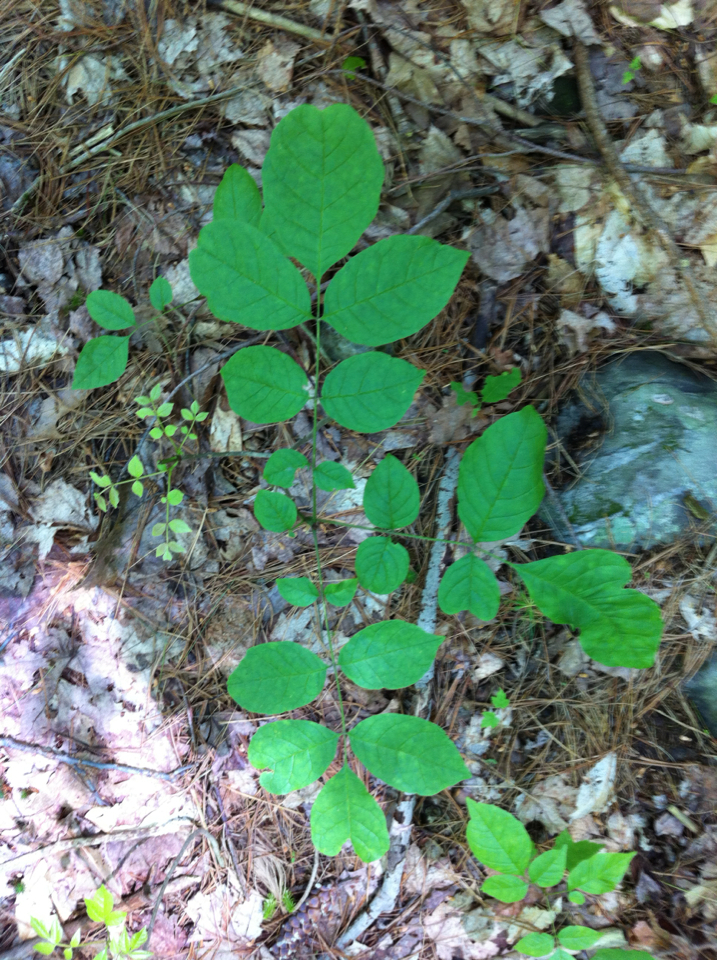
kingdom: Plantae
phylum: Tracheophyta
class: Magnoliopsida
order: Lamiales
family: Oleaceae
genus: Fraxinus
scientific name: Fraxinus americana
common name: White ash
